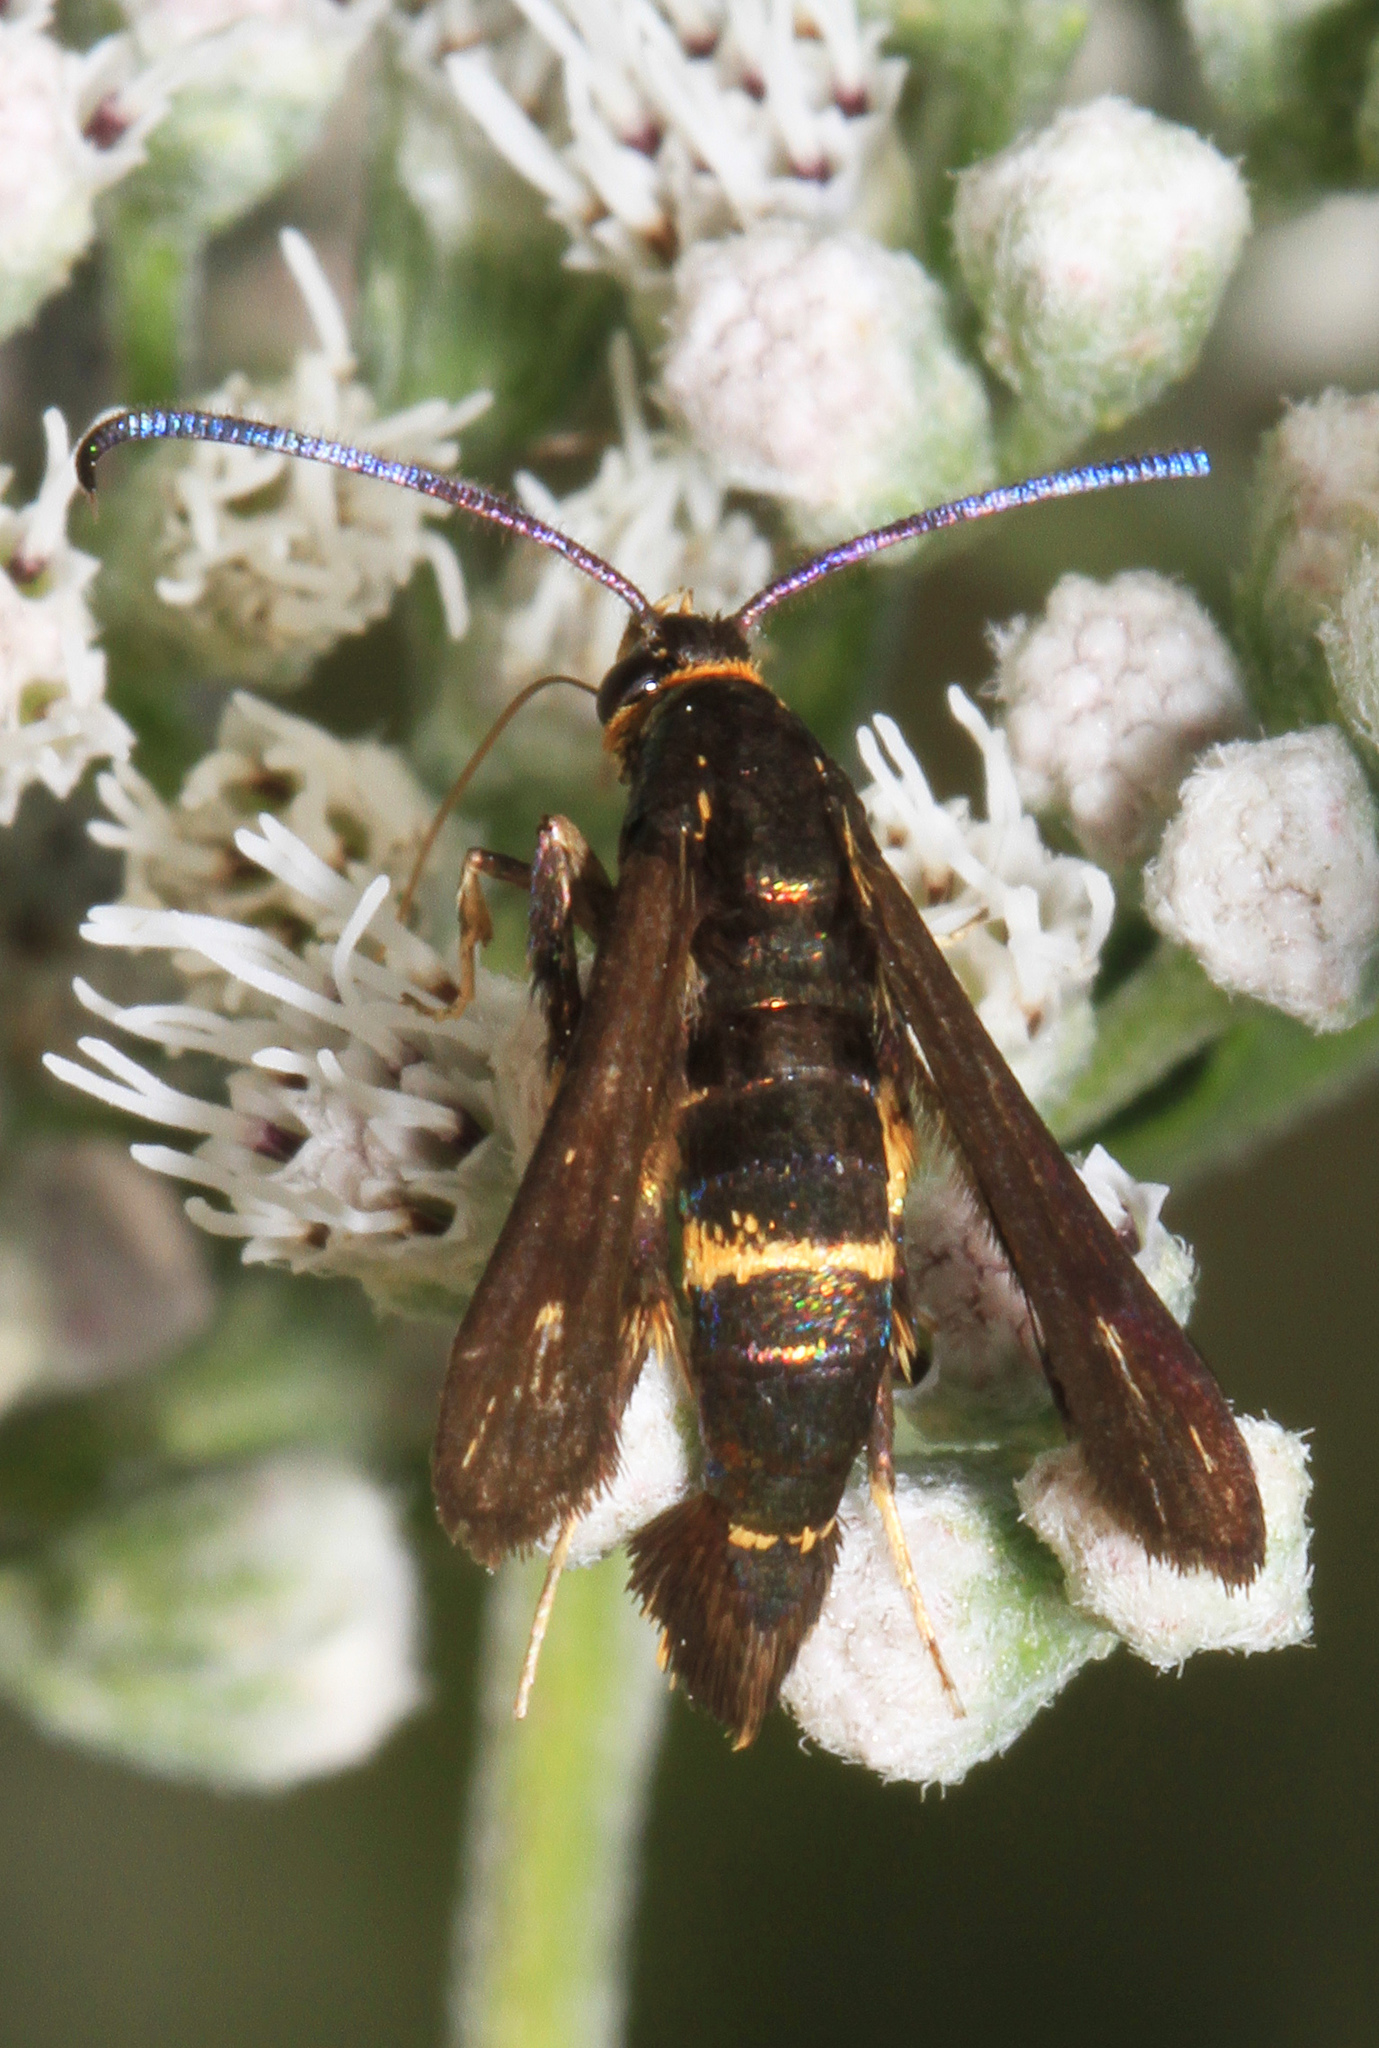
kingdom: Animalia
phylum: Arthropoda
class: Insecta
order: Lepidoptera
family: Sesiidae
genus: Carmenta
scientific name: Carmenta pyralidiformis
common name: Boneset borer moth
